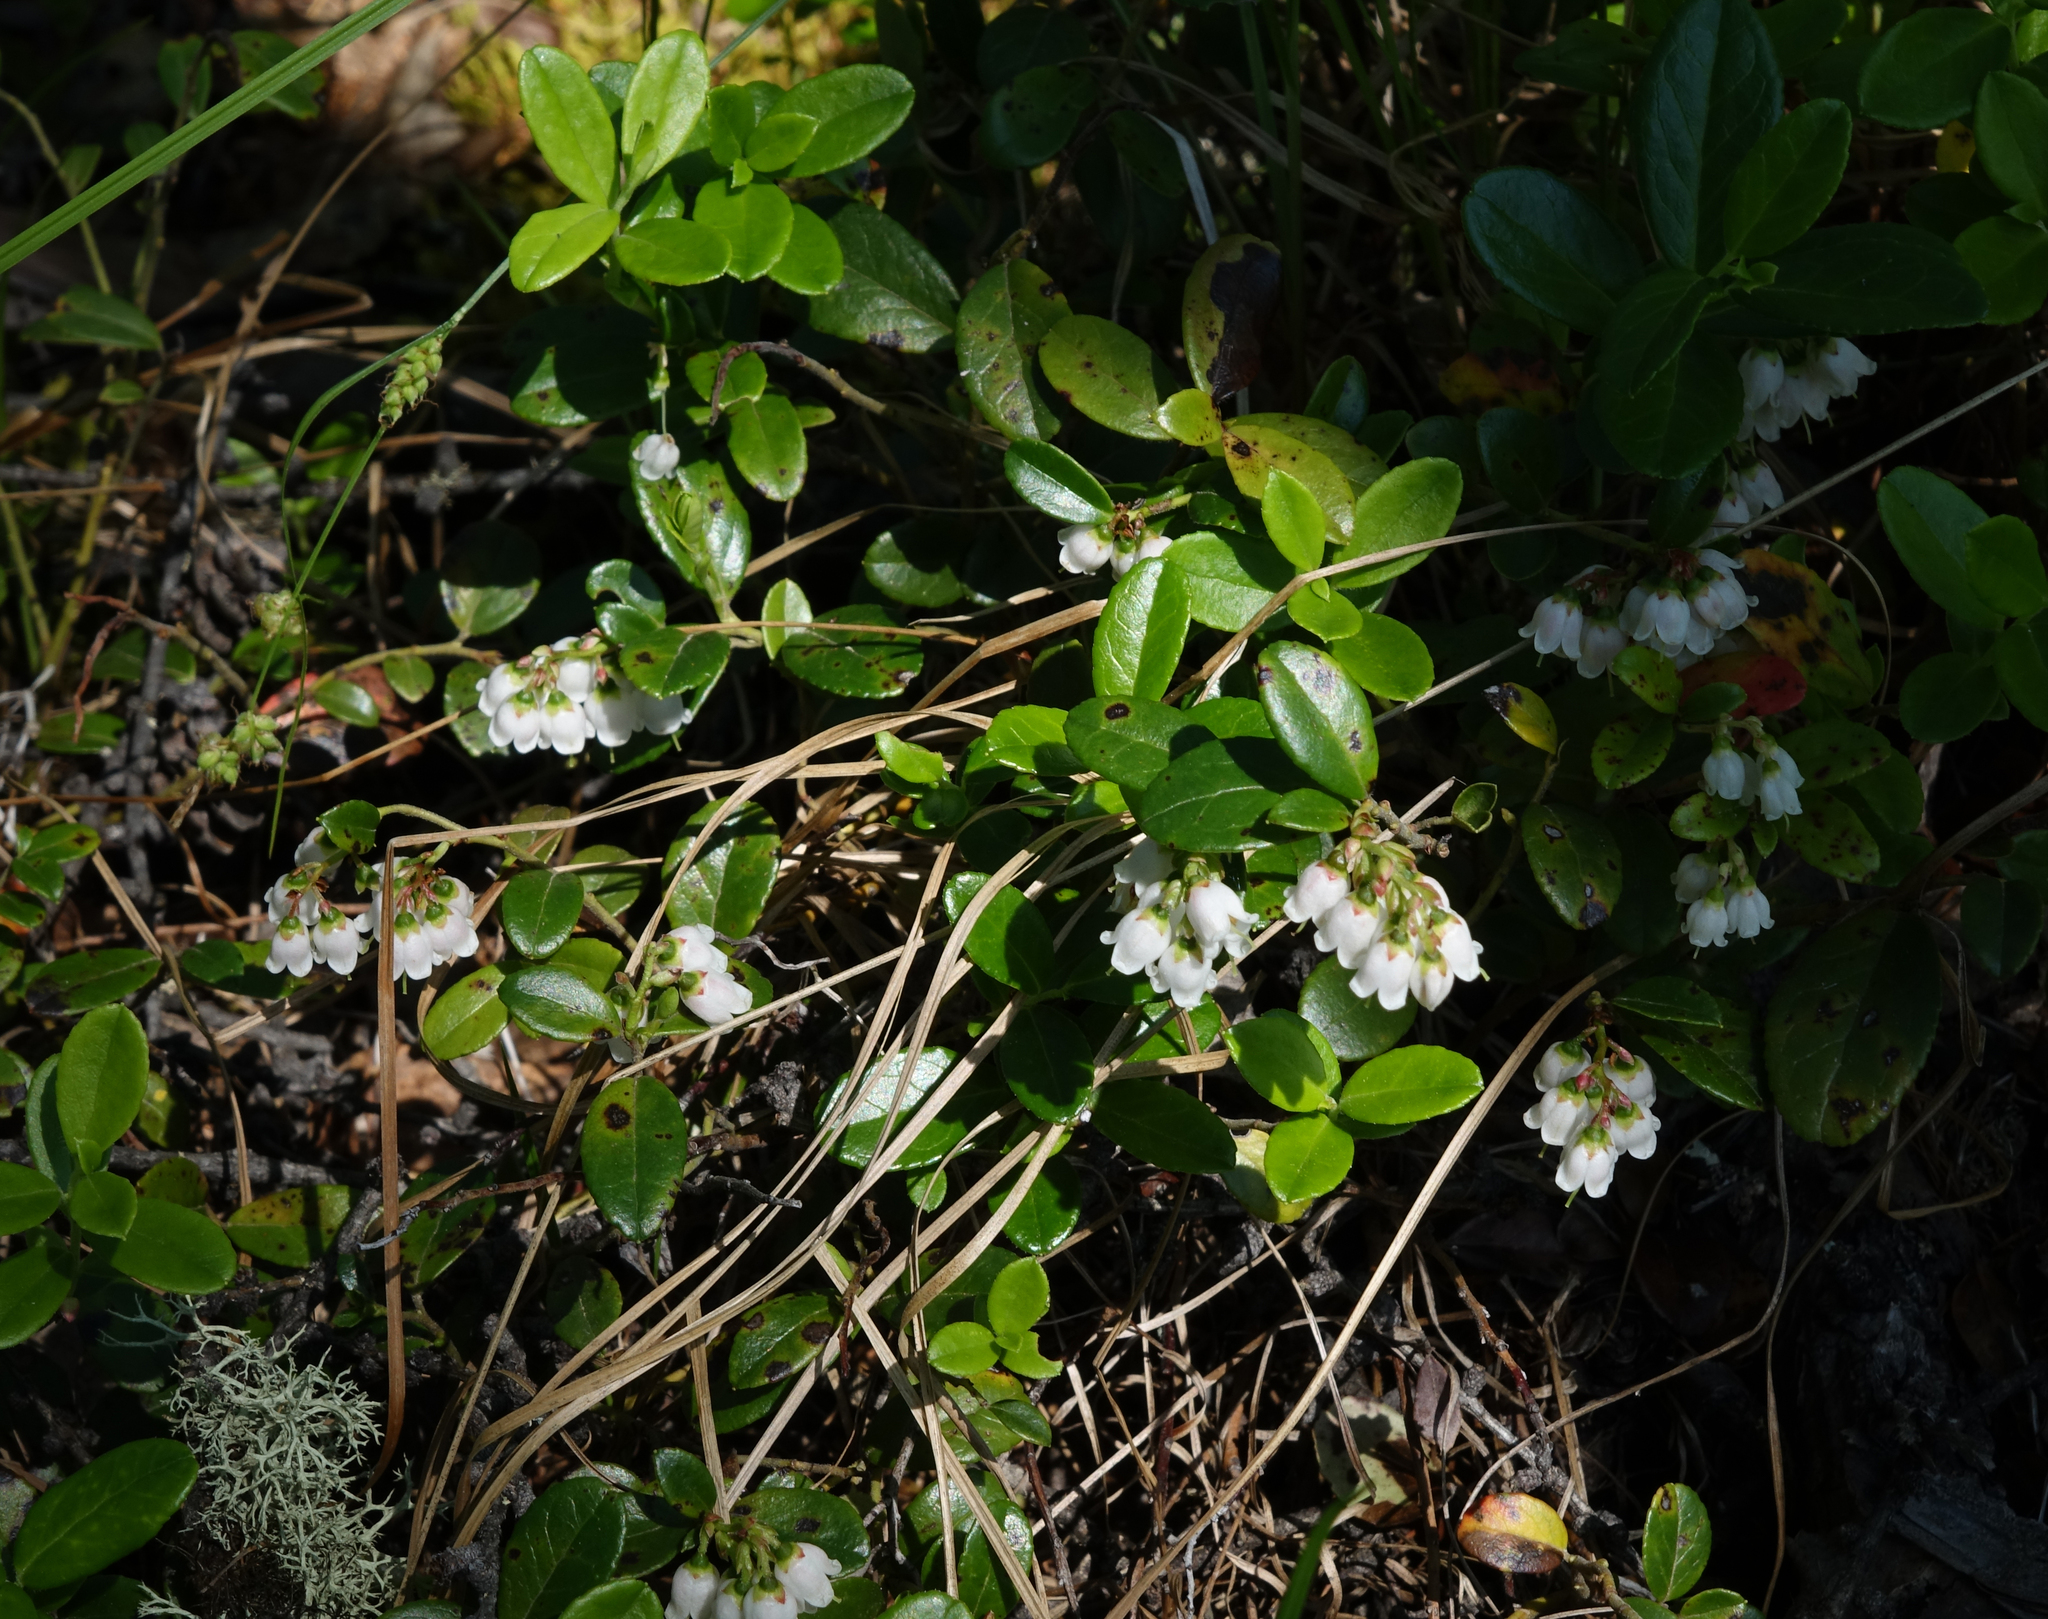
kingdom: Plantae
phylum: Tracheophyta
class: Magnoliopsida
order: Ericales
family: Ericaceae
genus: Vaccinium
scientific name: Vaccinium vitis-idaea
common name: Cowberry
